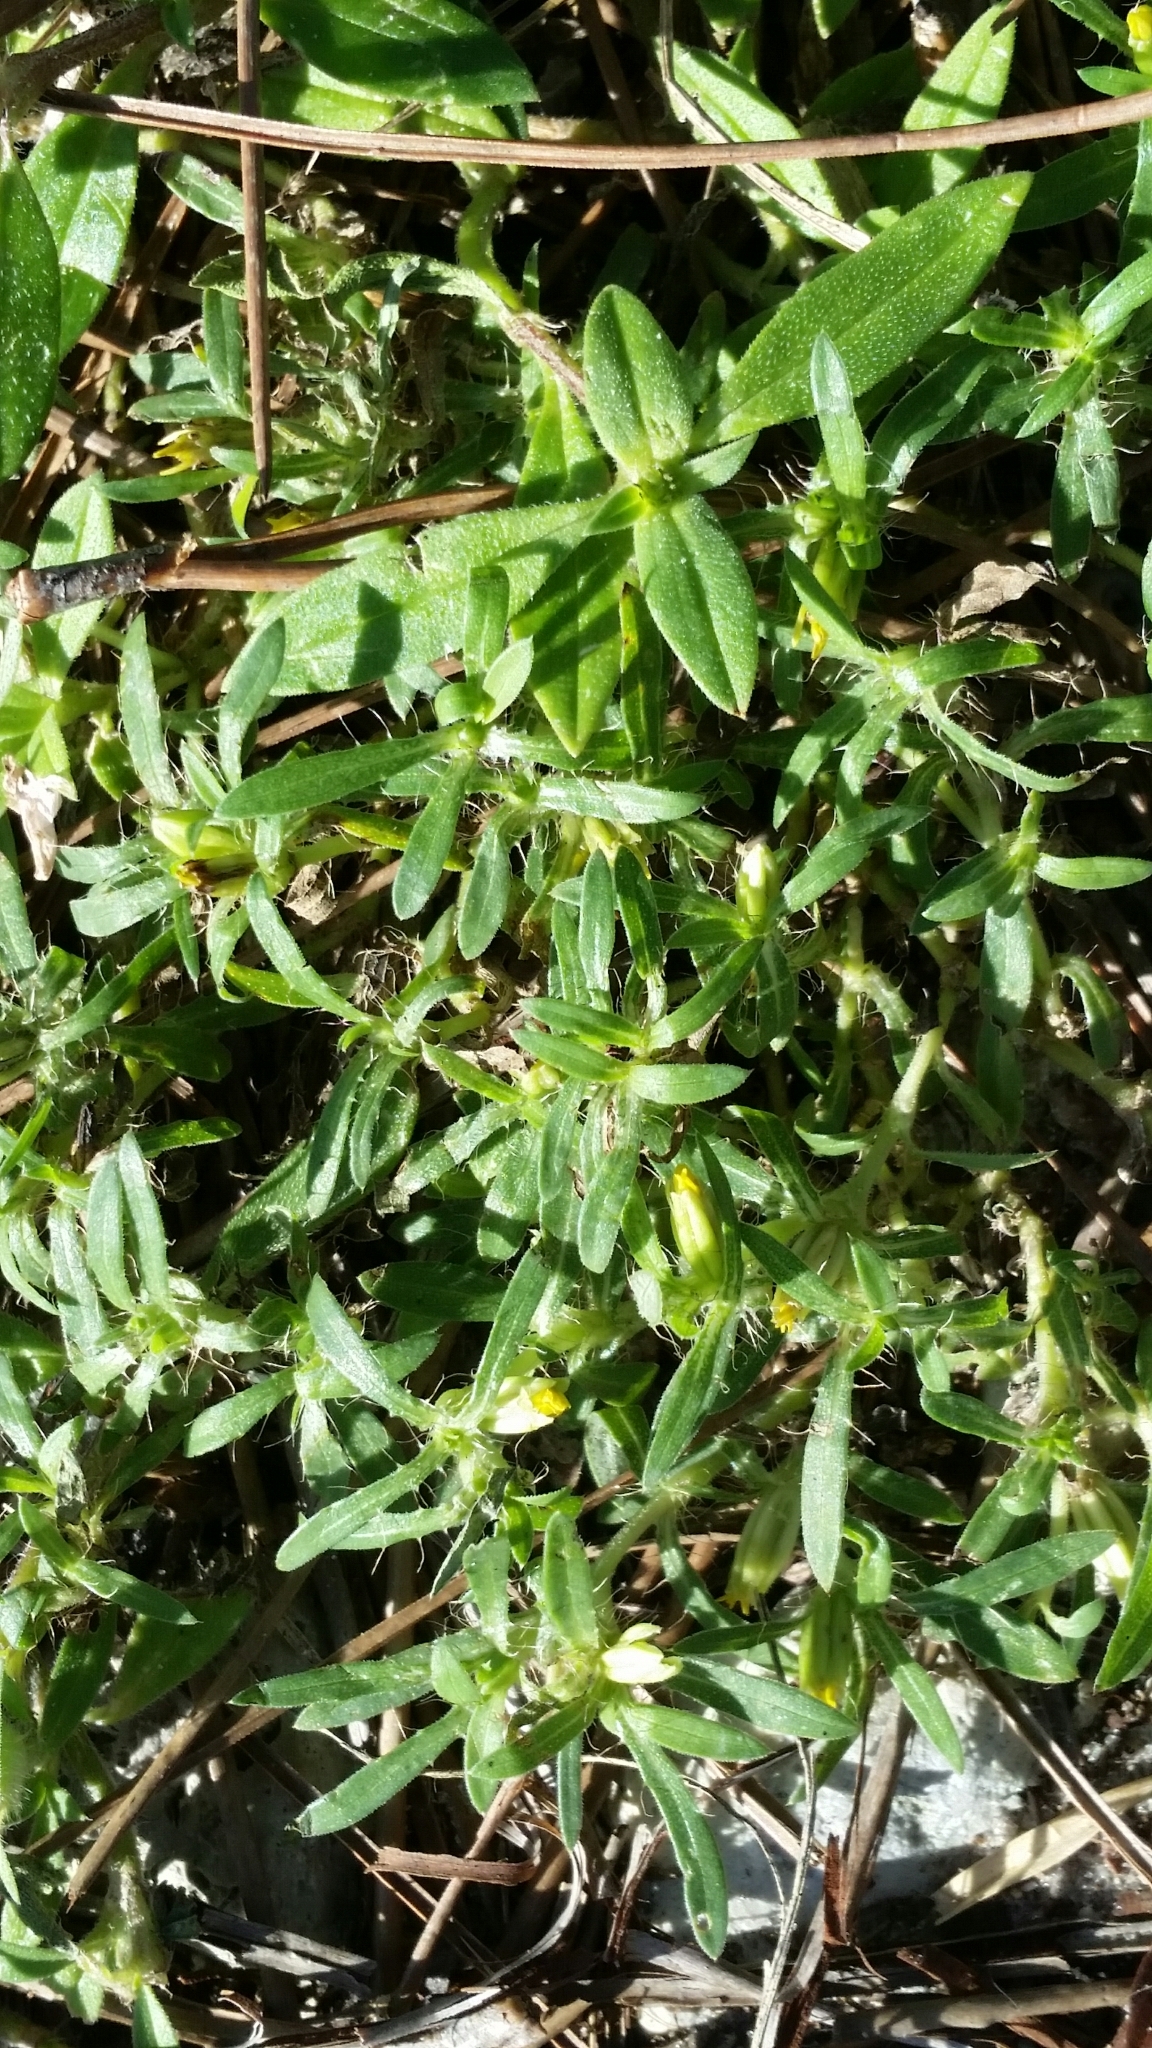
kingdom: Plantae
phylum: Tracheophyta
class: Magnoliopsida
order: Asterales
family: Asteraceae
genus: Pectis
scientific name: Pectis prostrata
